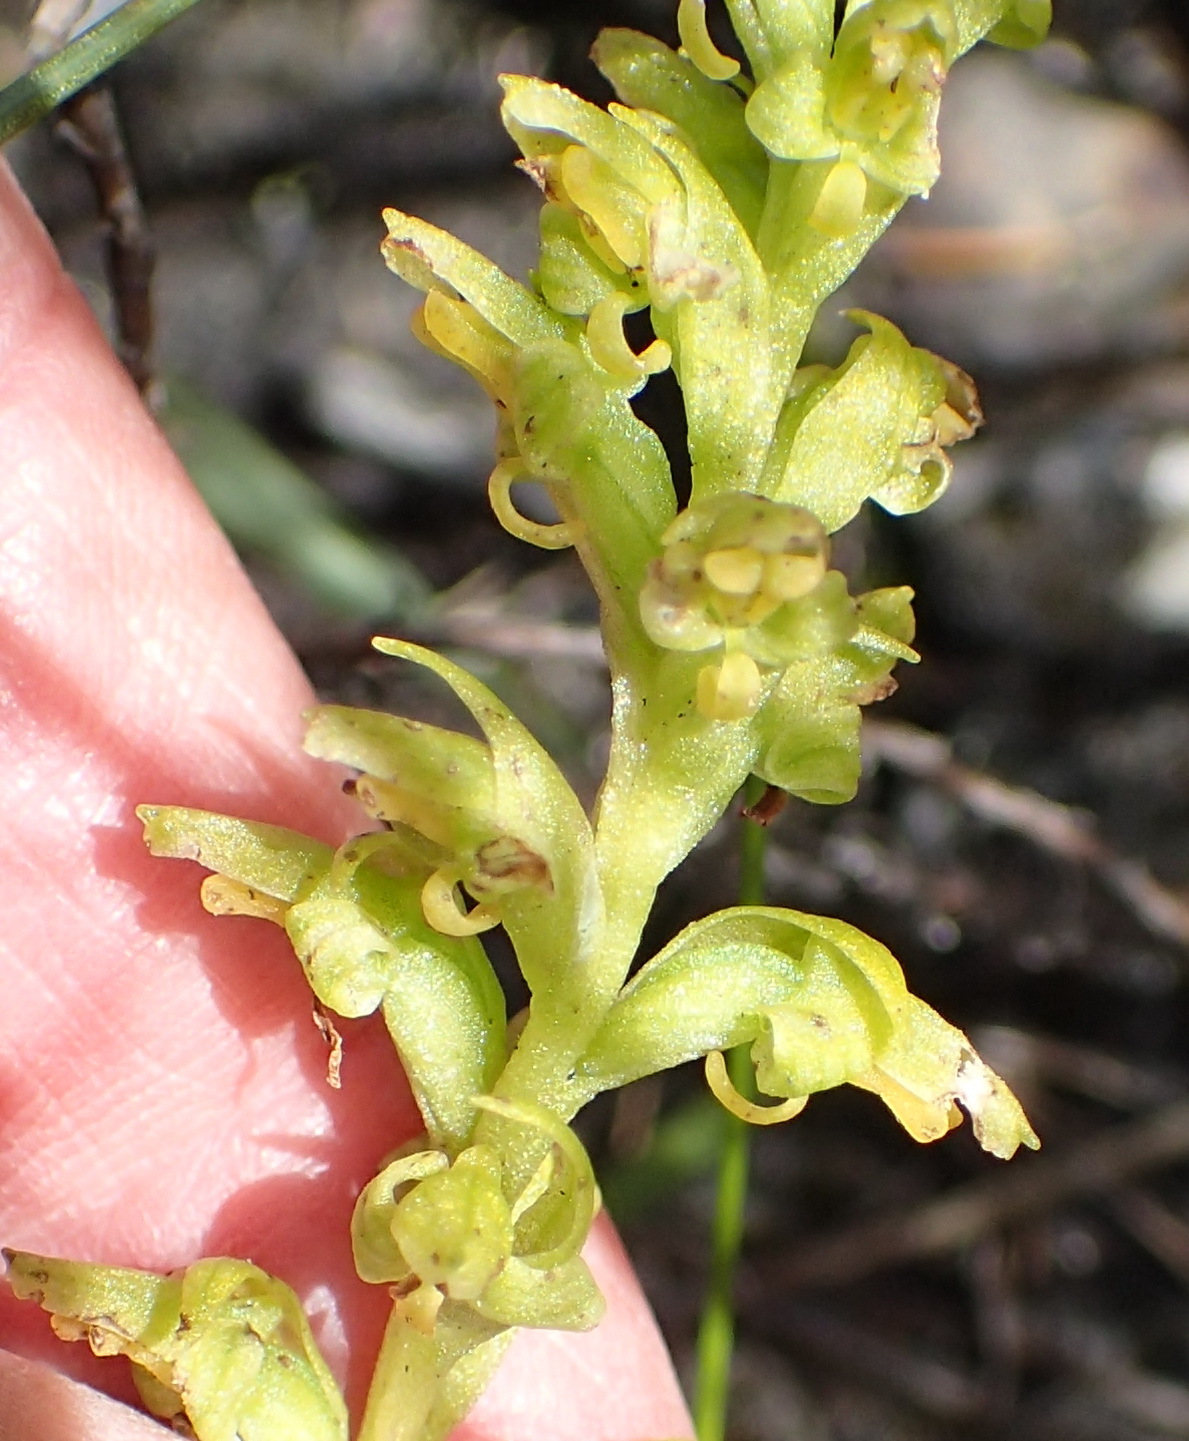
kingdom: Plantae
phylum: Tracheophyta
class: Liliopsida
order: Asparagales
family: Orchidaceae
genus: Disa
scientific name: Disa cylindrica
